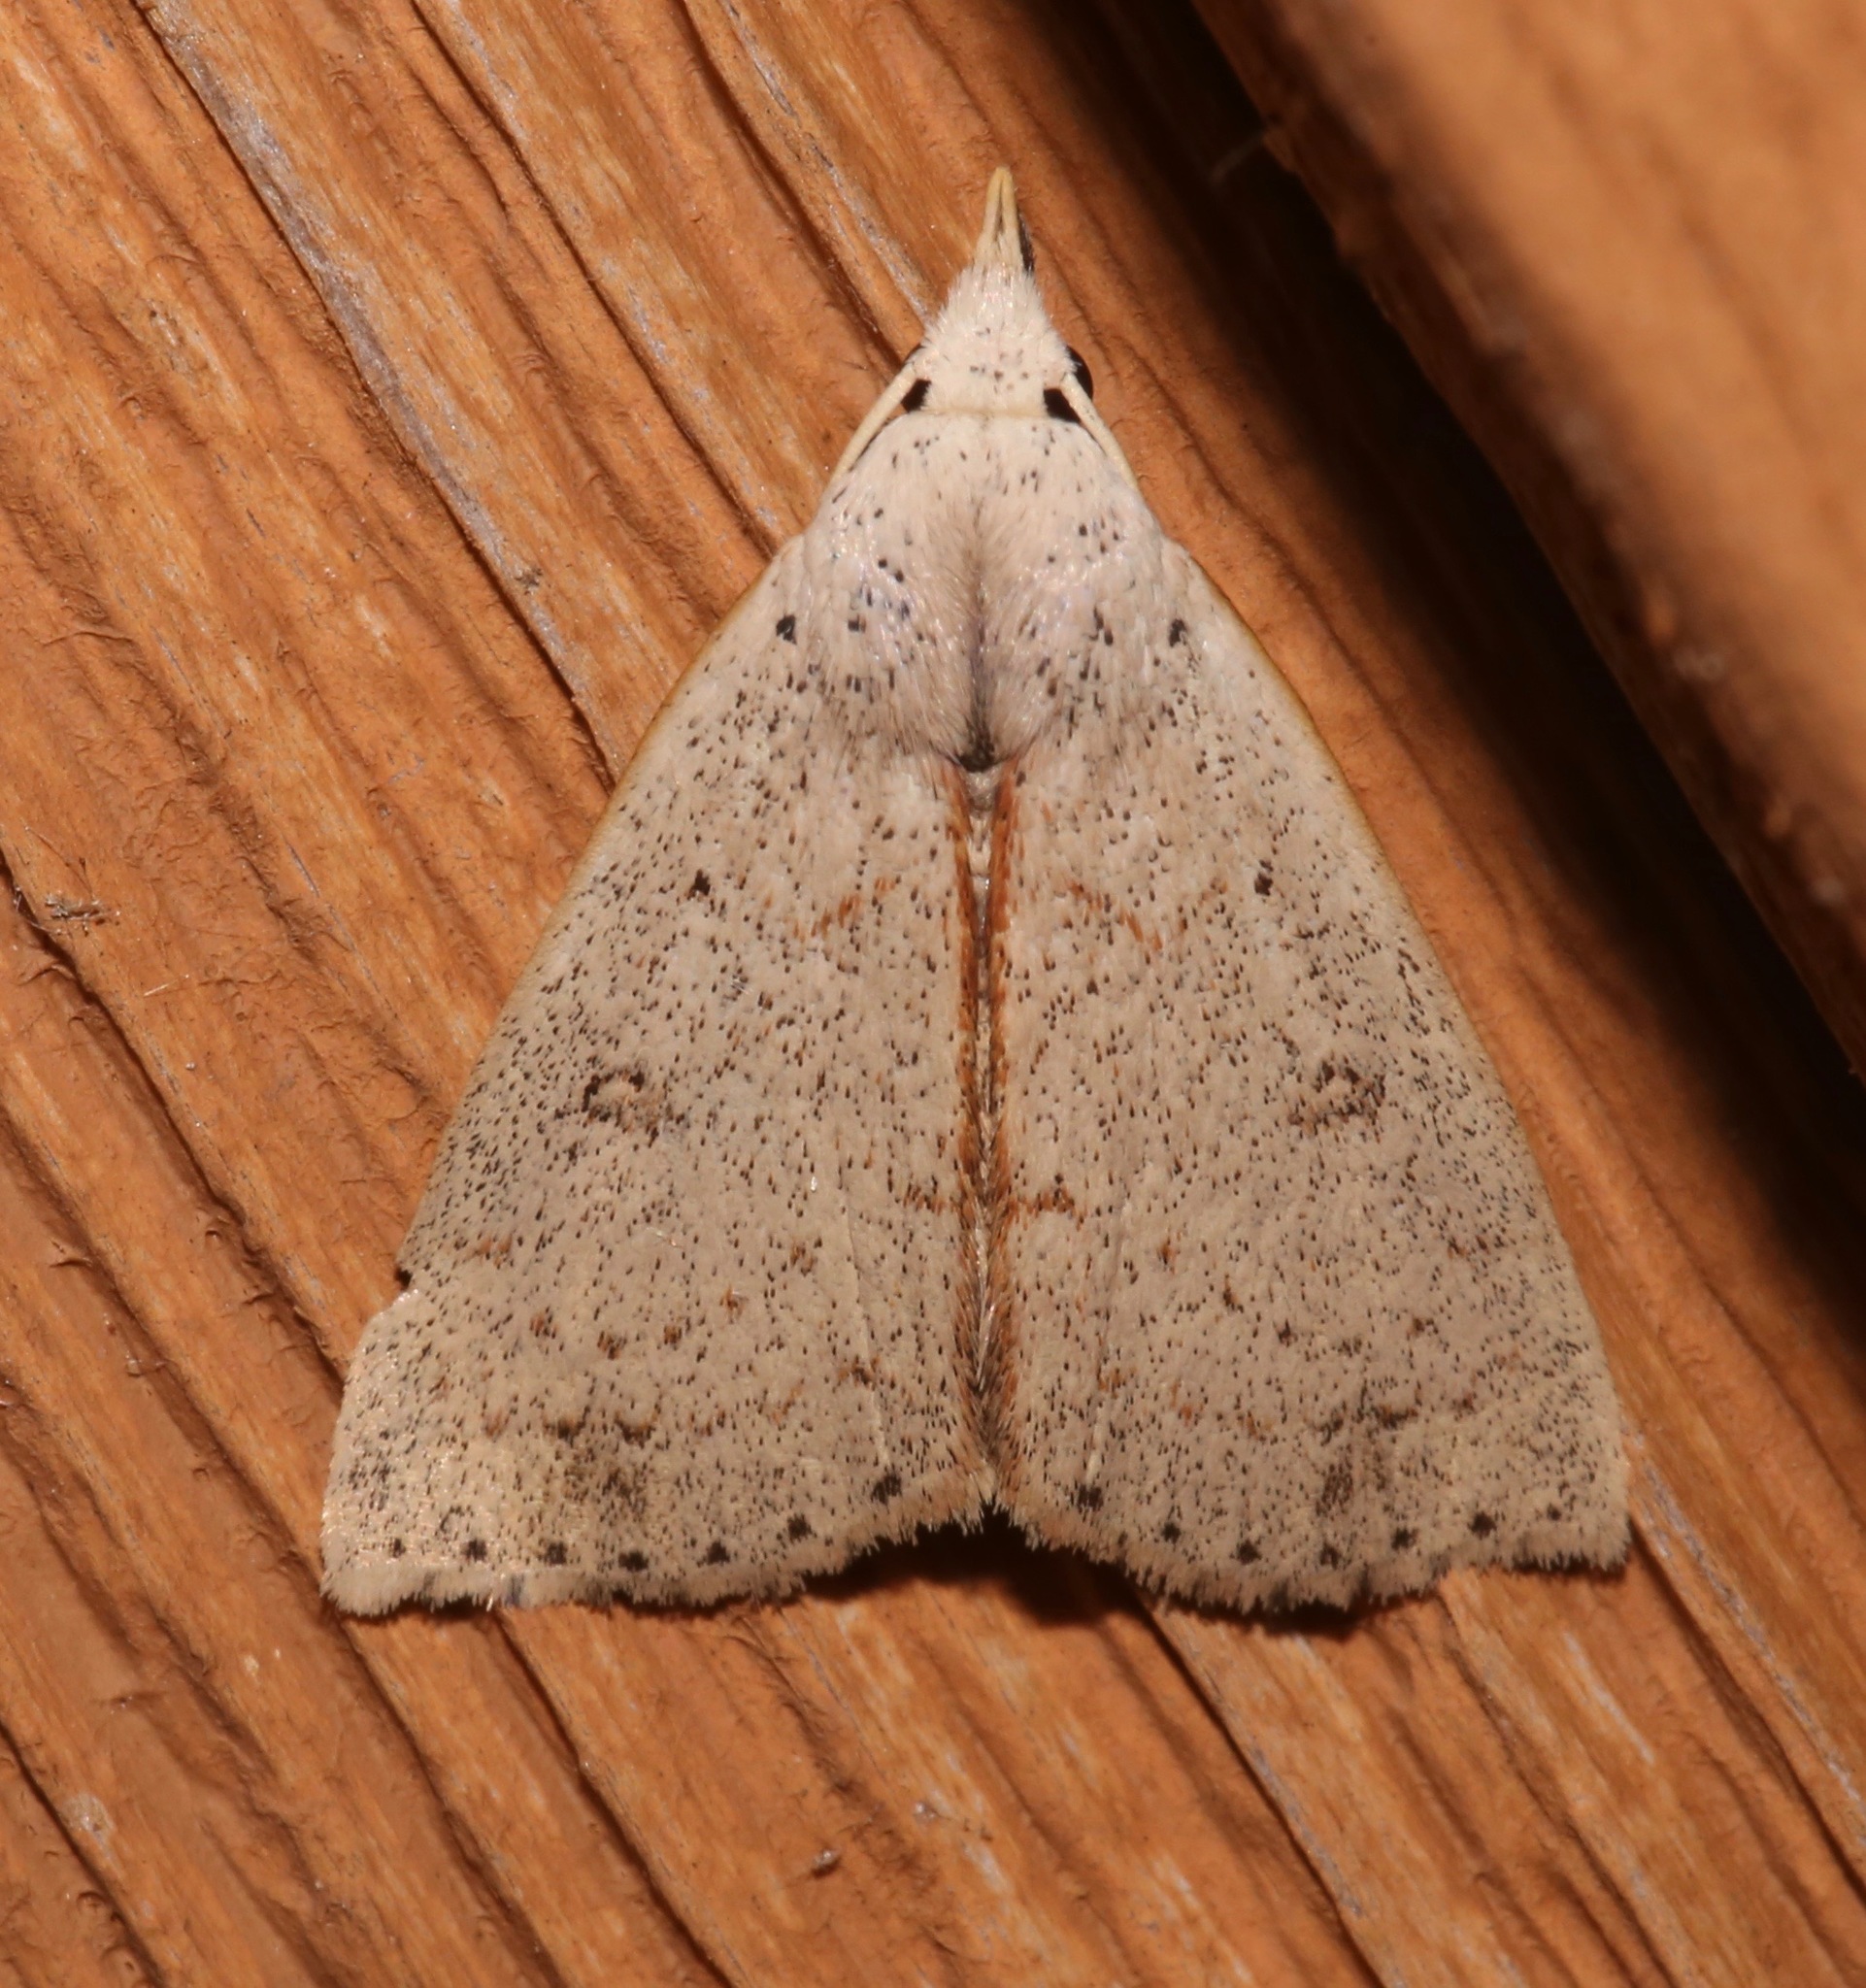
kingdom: Animalia
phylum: Arthropoda
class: Insecta
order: Lepidoptera
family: Erebidae
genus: Scolecocampa
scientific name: Scolecocampa liburna
